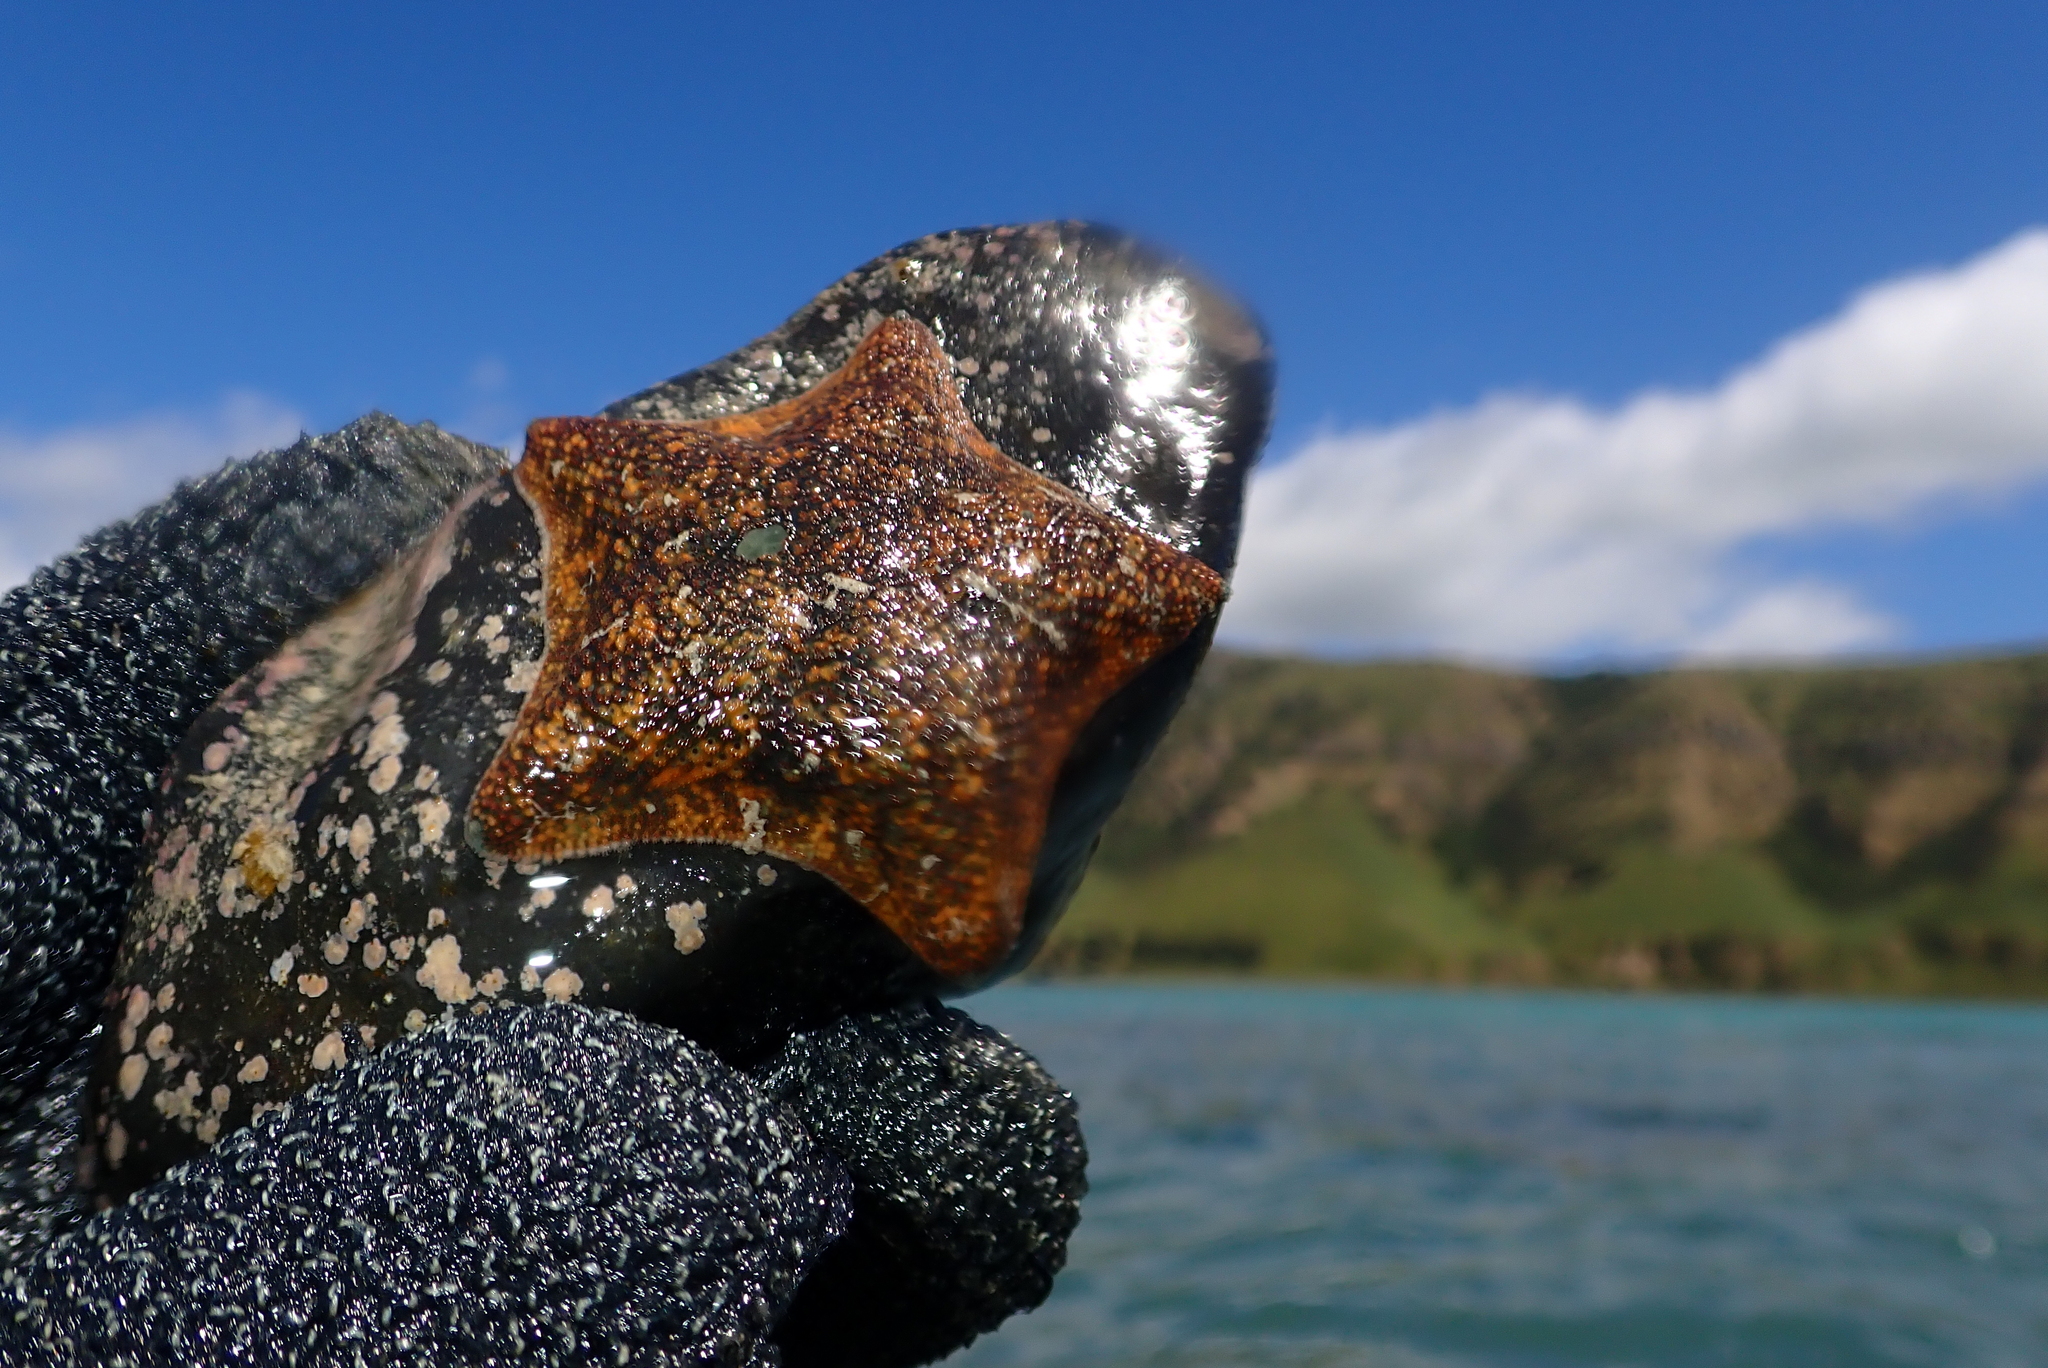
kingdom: Animalia
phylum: Echinodermata
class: Asteroidea
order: Valvatida
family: Asterinidae
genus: Patiriella
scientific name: Patiriella regularis
